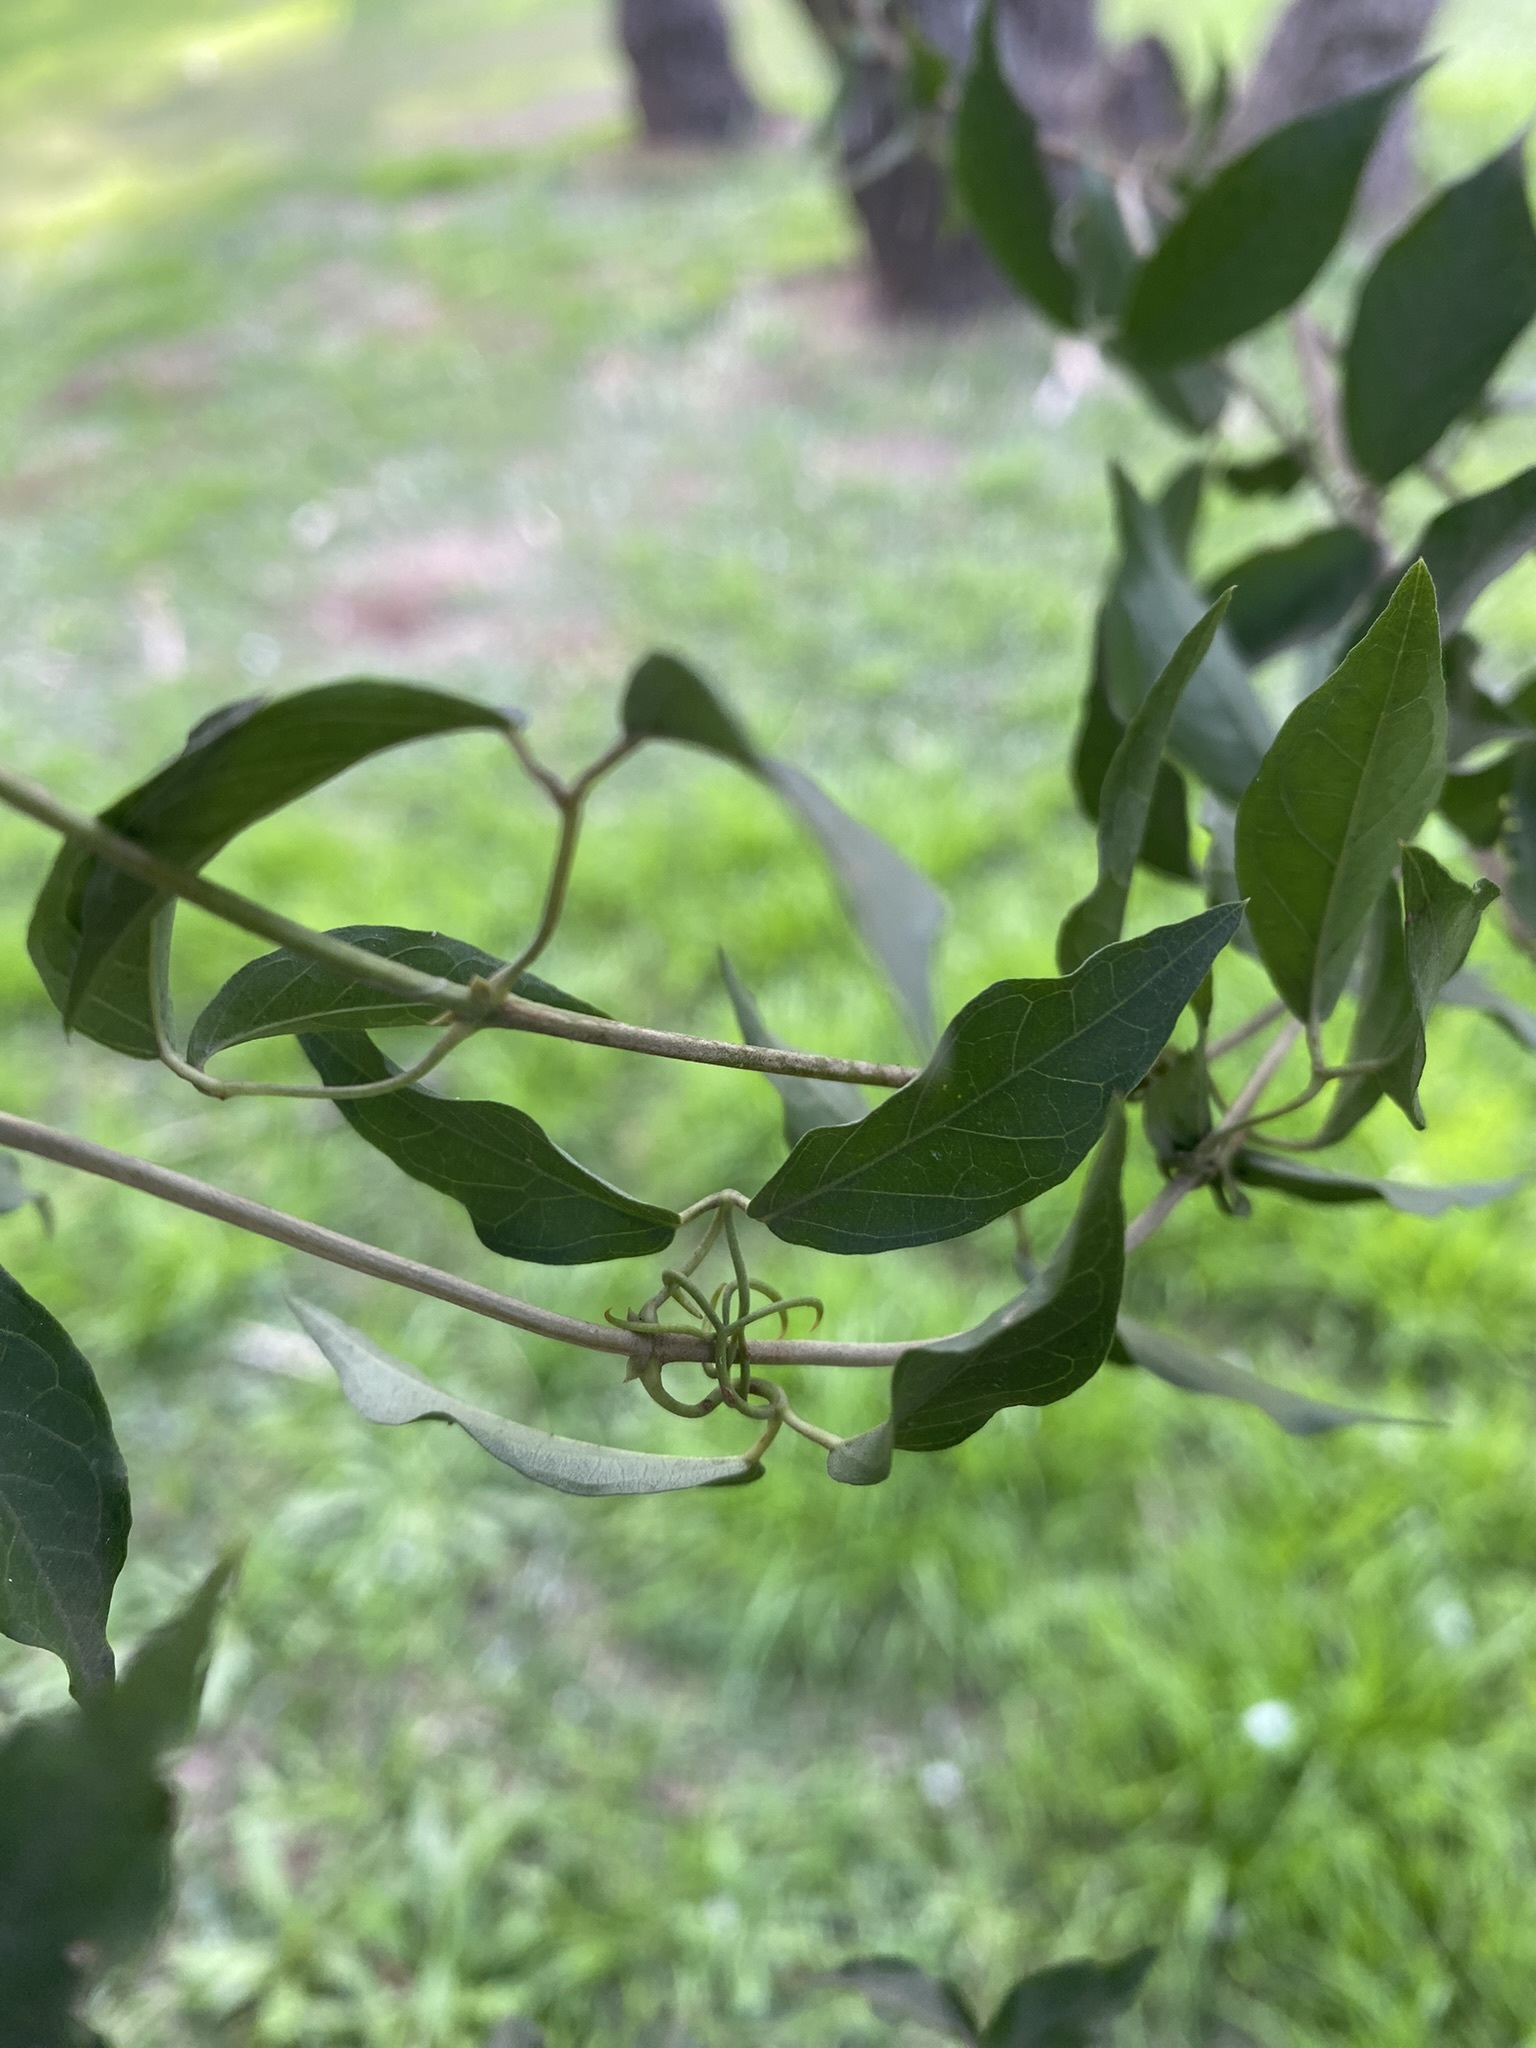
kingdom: Plantae
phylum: Tracheophyta
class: Magnoliopsida
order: Lamiales
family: Bignoniaceae
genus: Dolichandra
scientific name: Dolichandra unguis-cati
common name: Catclaw vine
